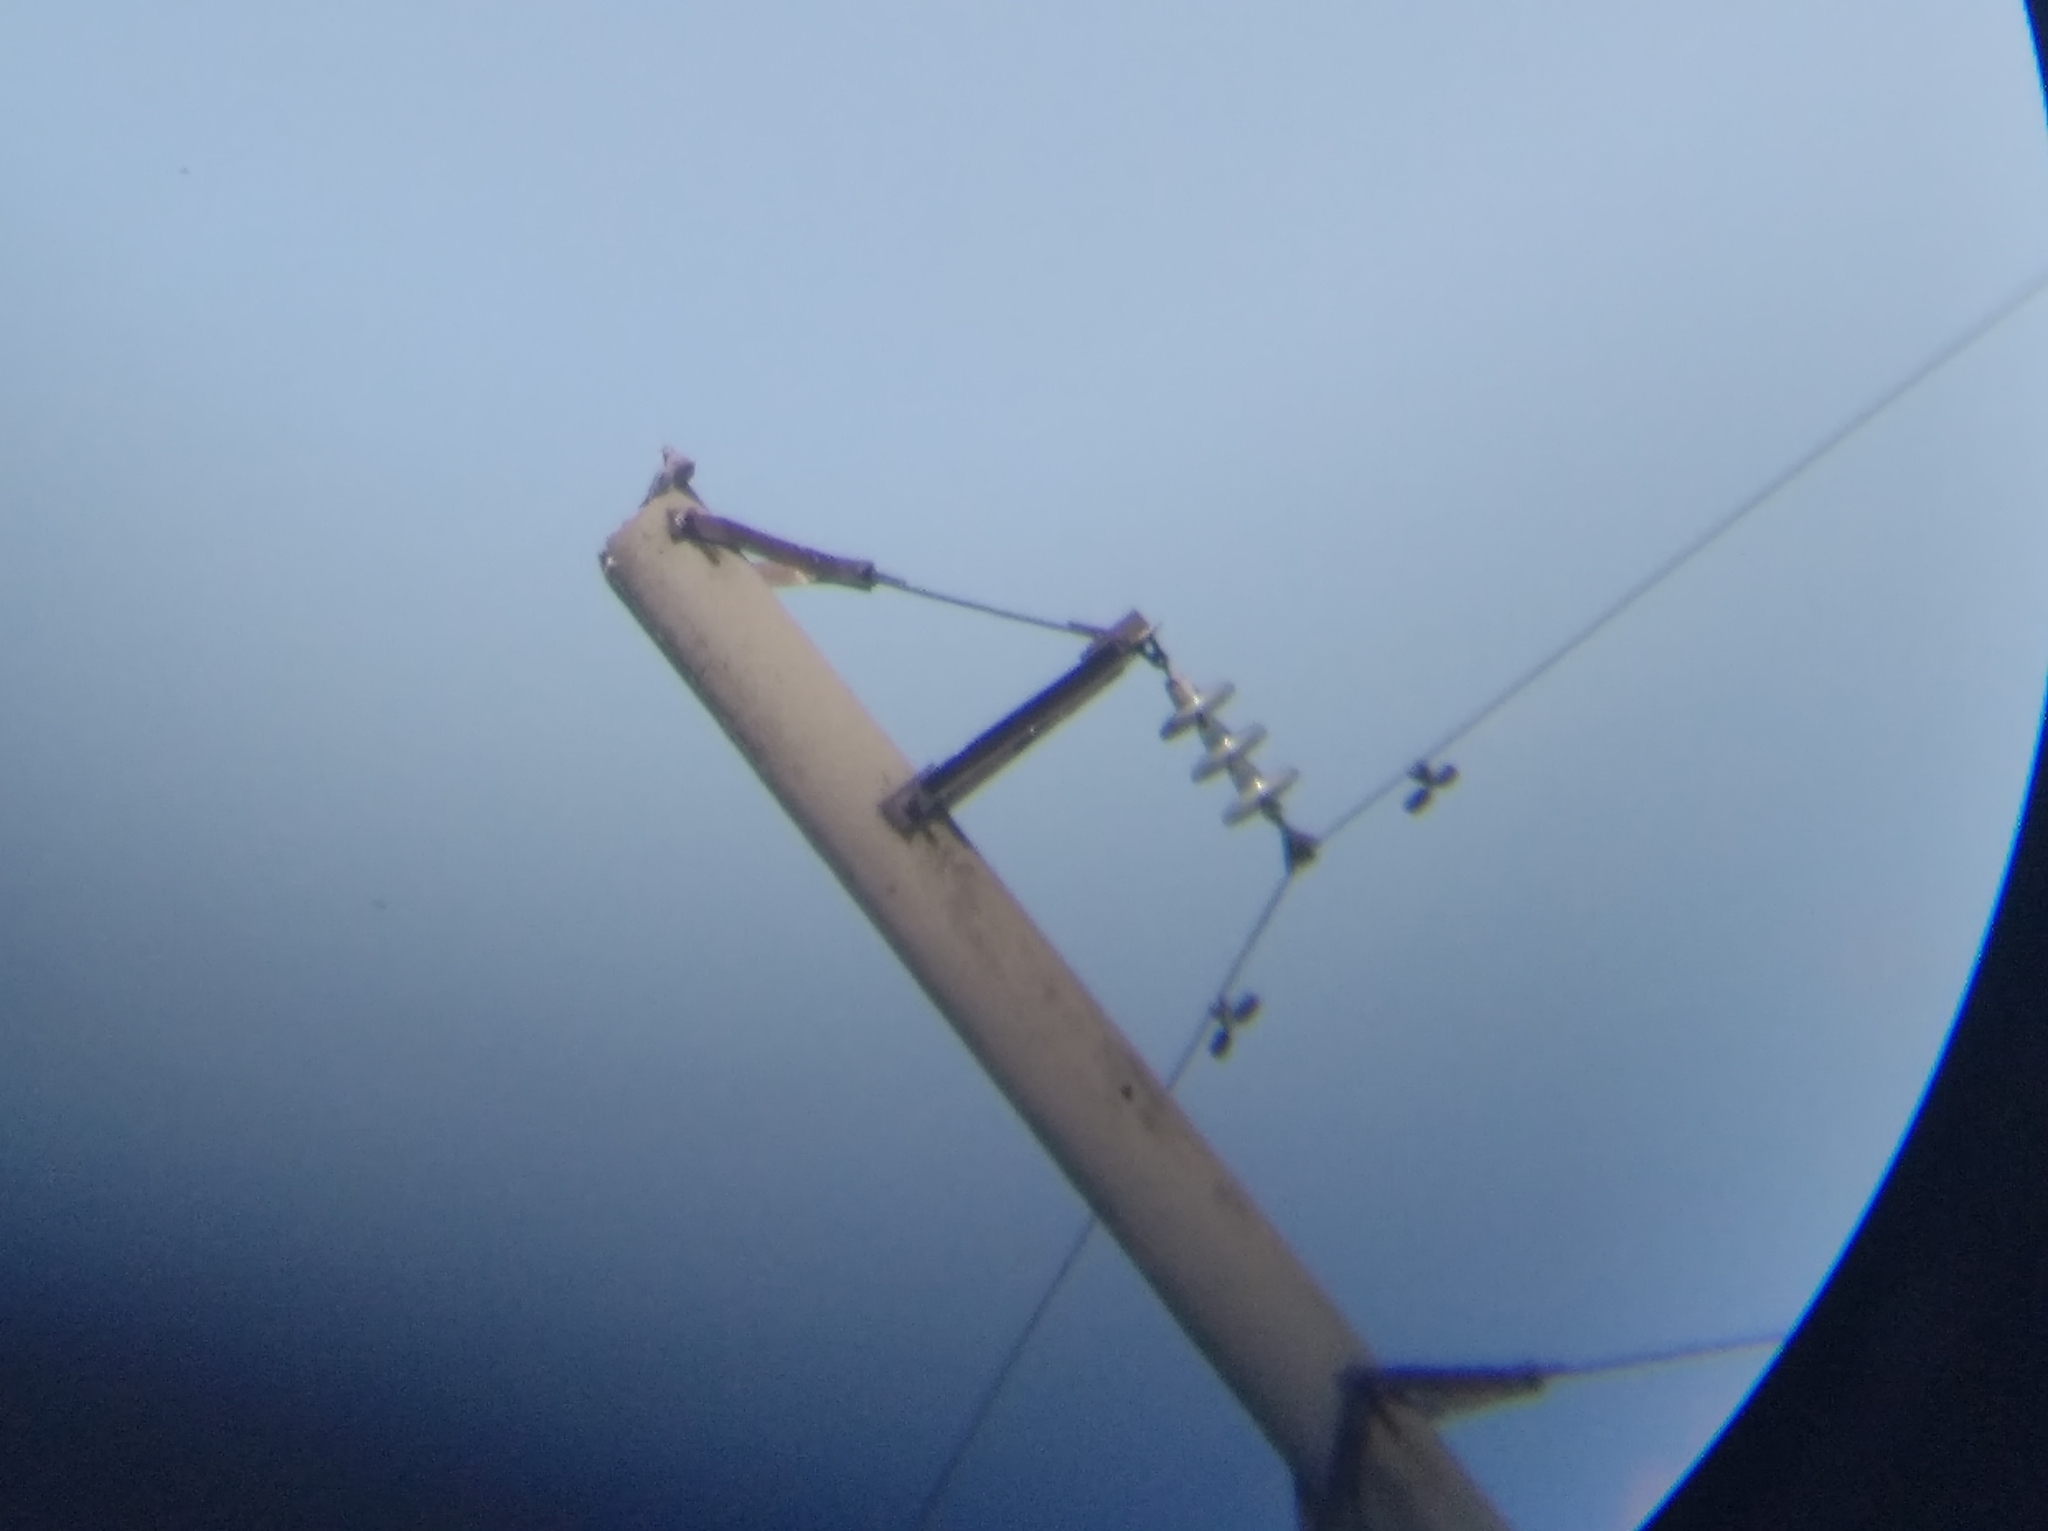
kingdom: Animalia
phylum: Chordata
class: Aves
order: Columbiformes
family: Columbidae
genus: Columba
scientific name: Columba oenas
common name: Stock dove
